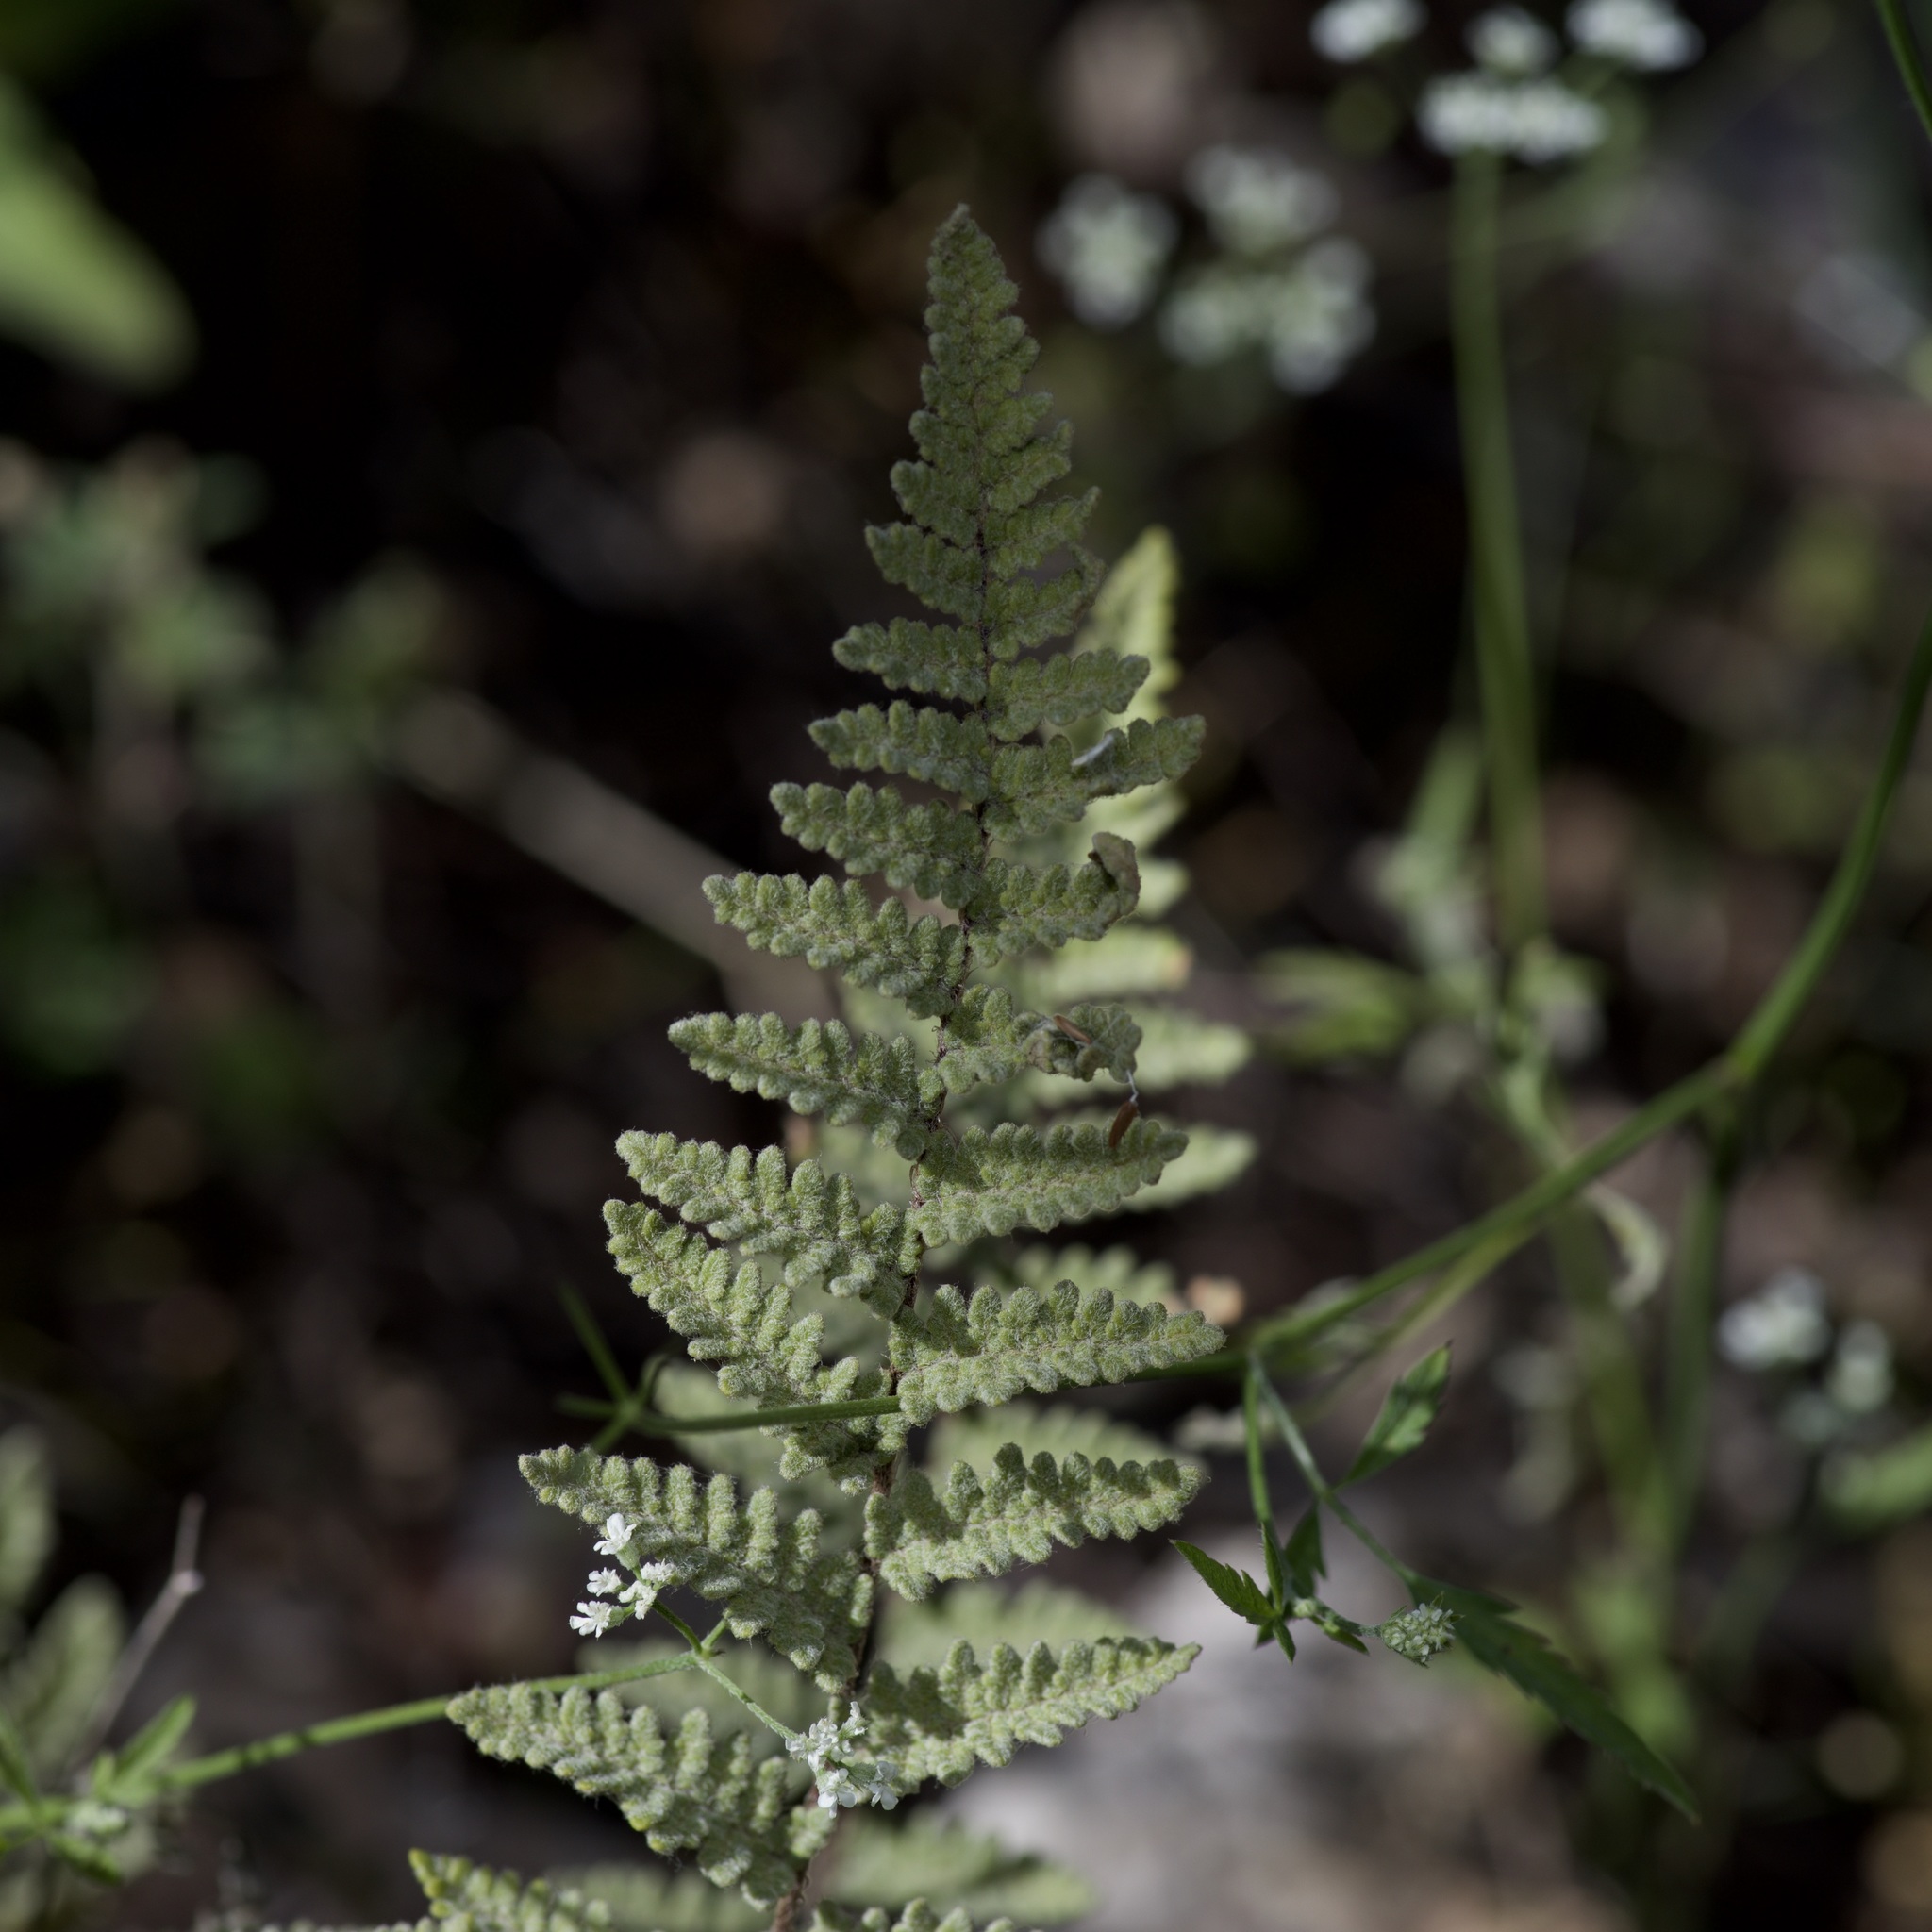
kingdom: Plantae
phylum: Tracheophyta
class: Polypodiopsida
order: Polypodiales
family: Pteridaceae
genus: Myriopteris
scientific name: Myriopteris tomentosa
